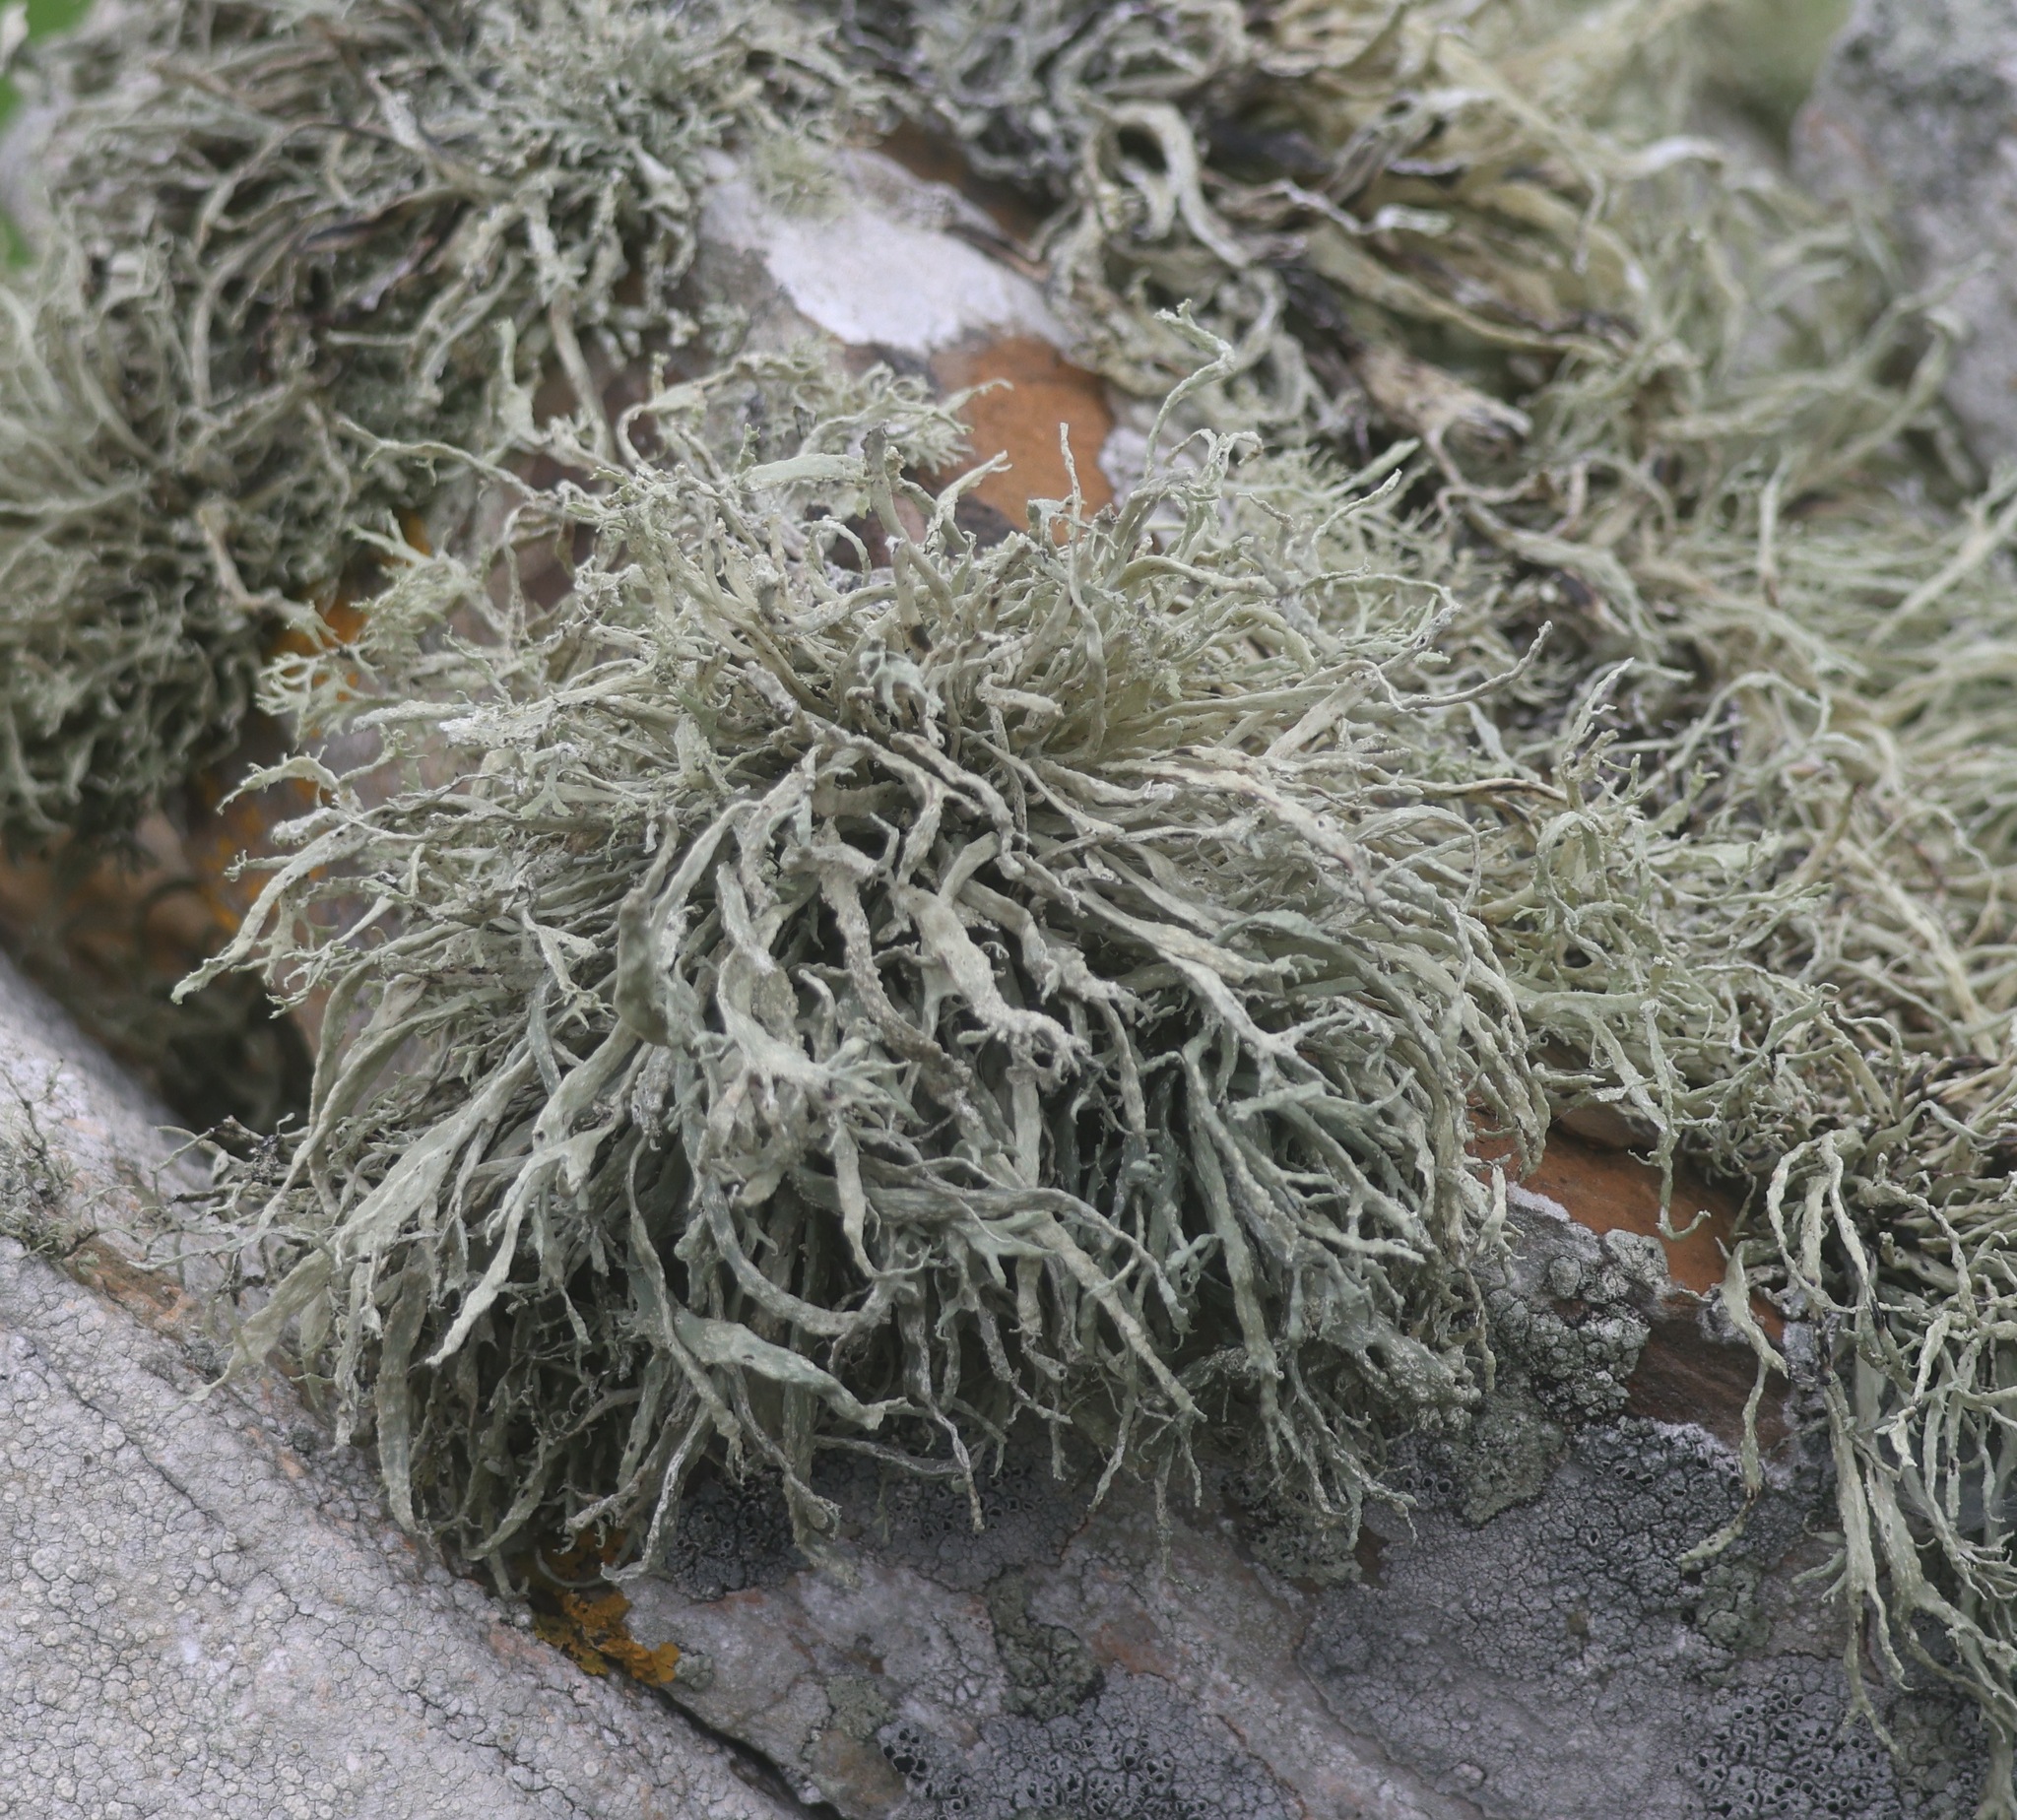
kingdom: Fungi
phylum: Ascomycota
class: Lecanoromycetes
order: Lecanorales
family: Ramalinaceae
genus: Ramalina
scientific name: Ramalina siliquosa
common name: Sea ivory
